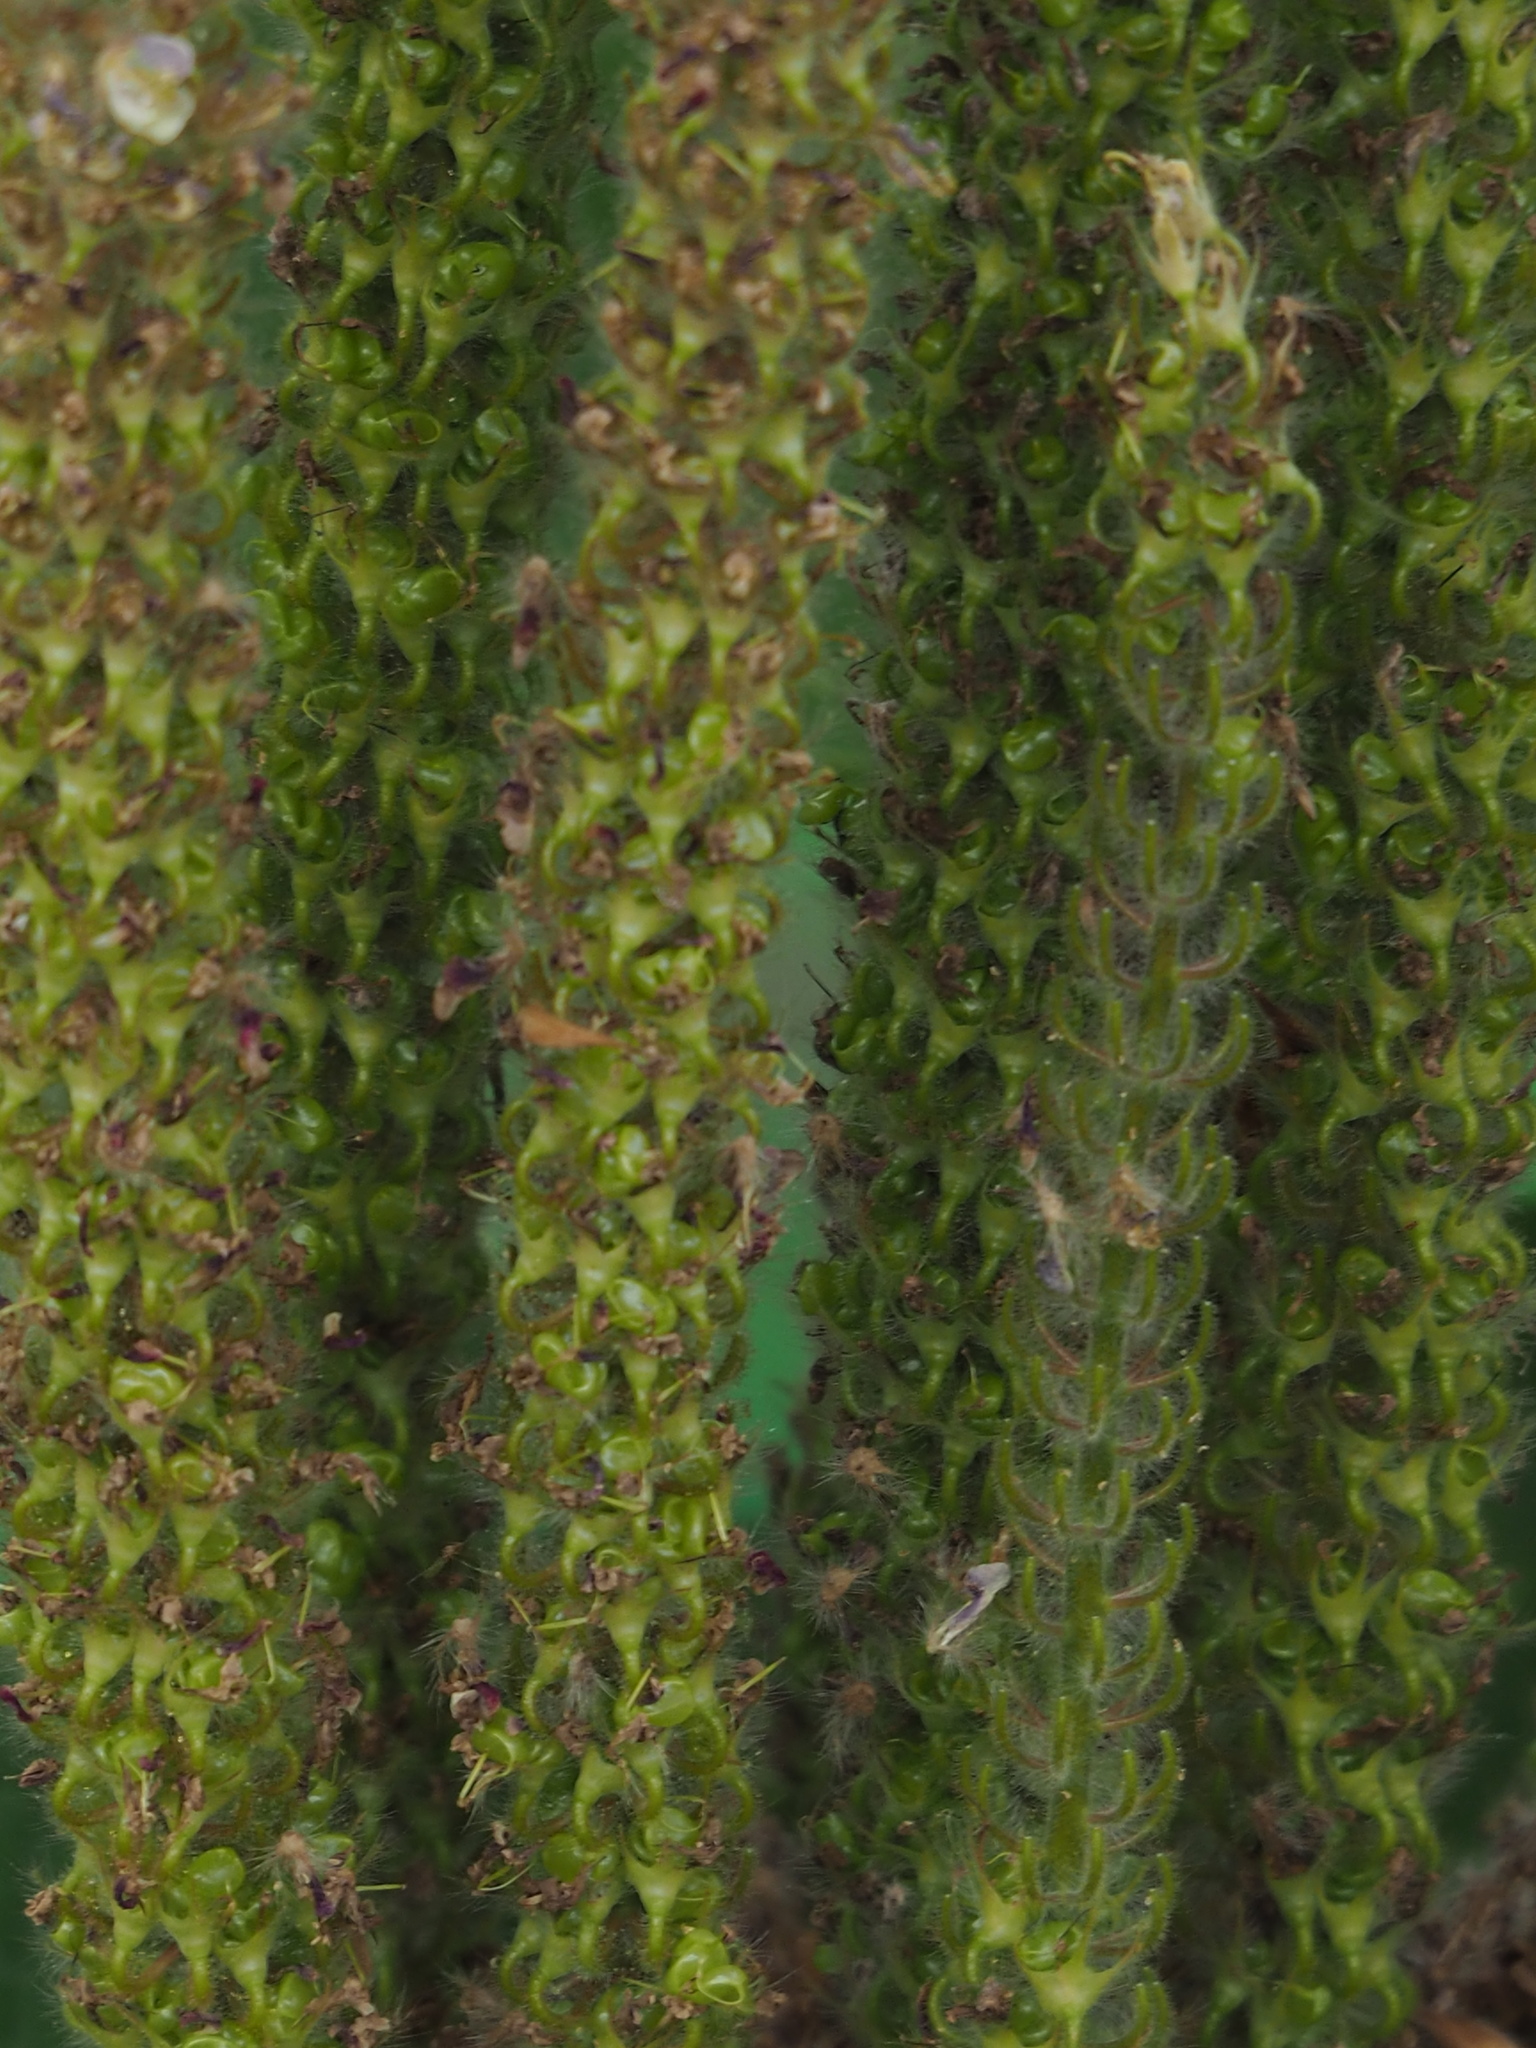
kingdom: Plantae
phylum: Tracheophyta
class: Magnoliopsida
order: Fabales
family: Fabaceae
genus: Uraria
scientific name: Uraria crinita
